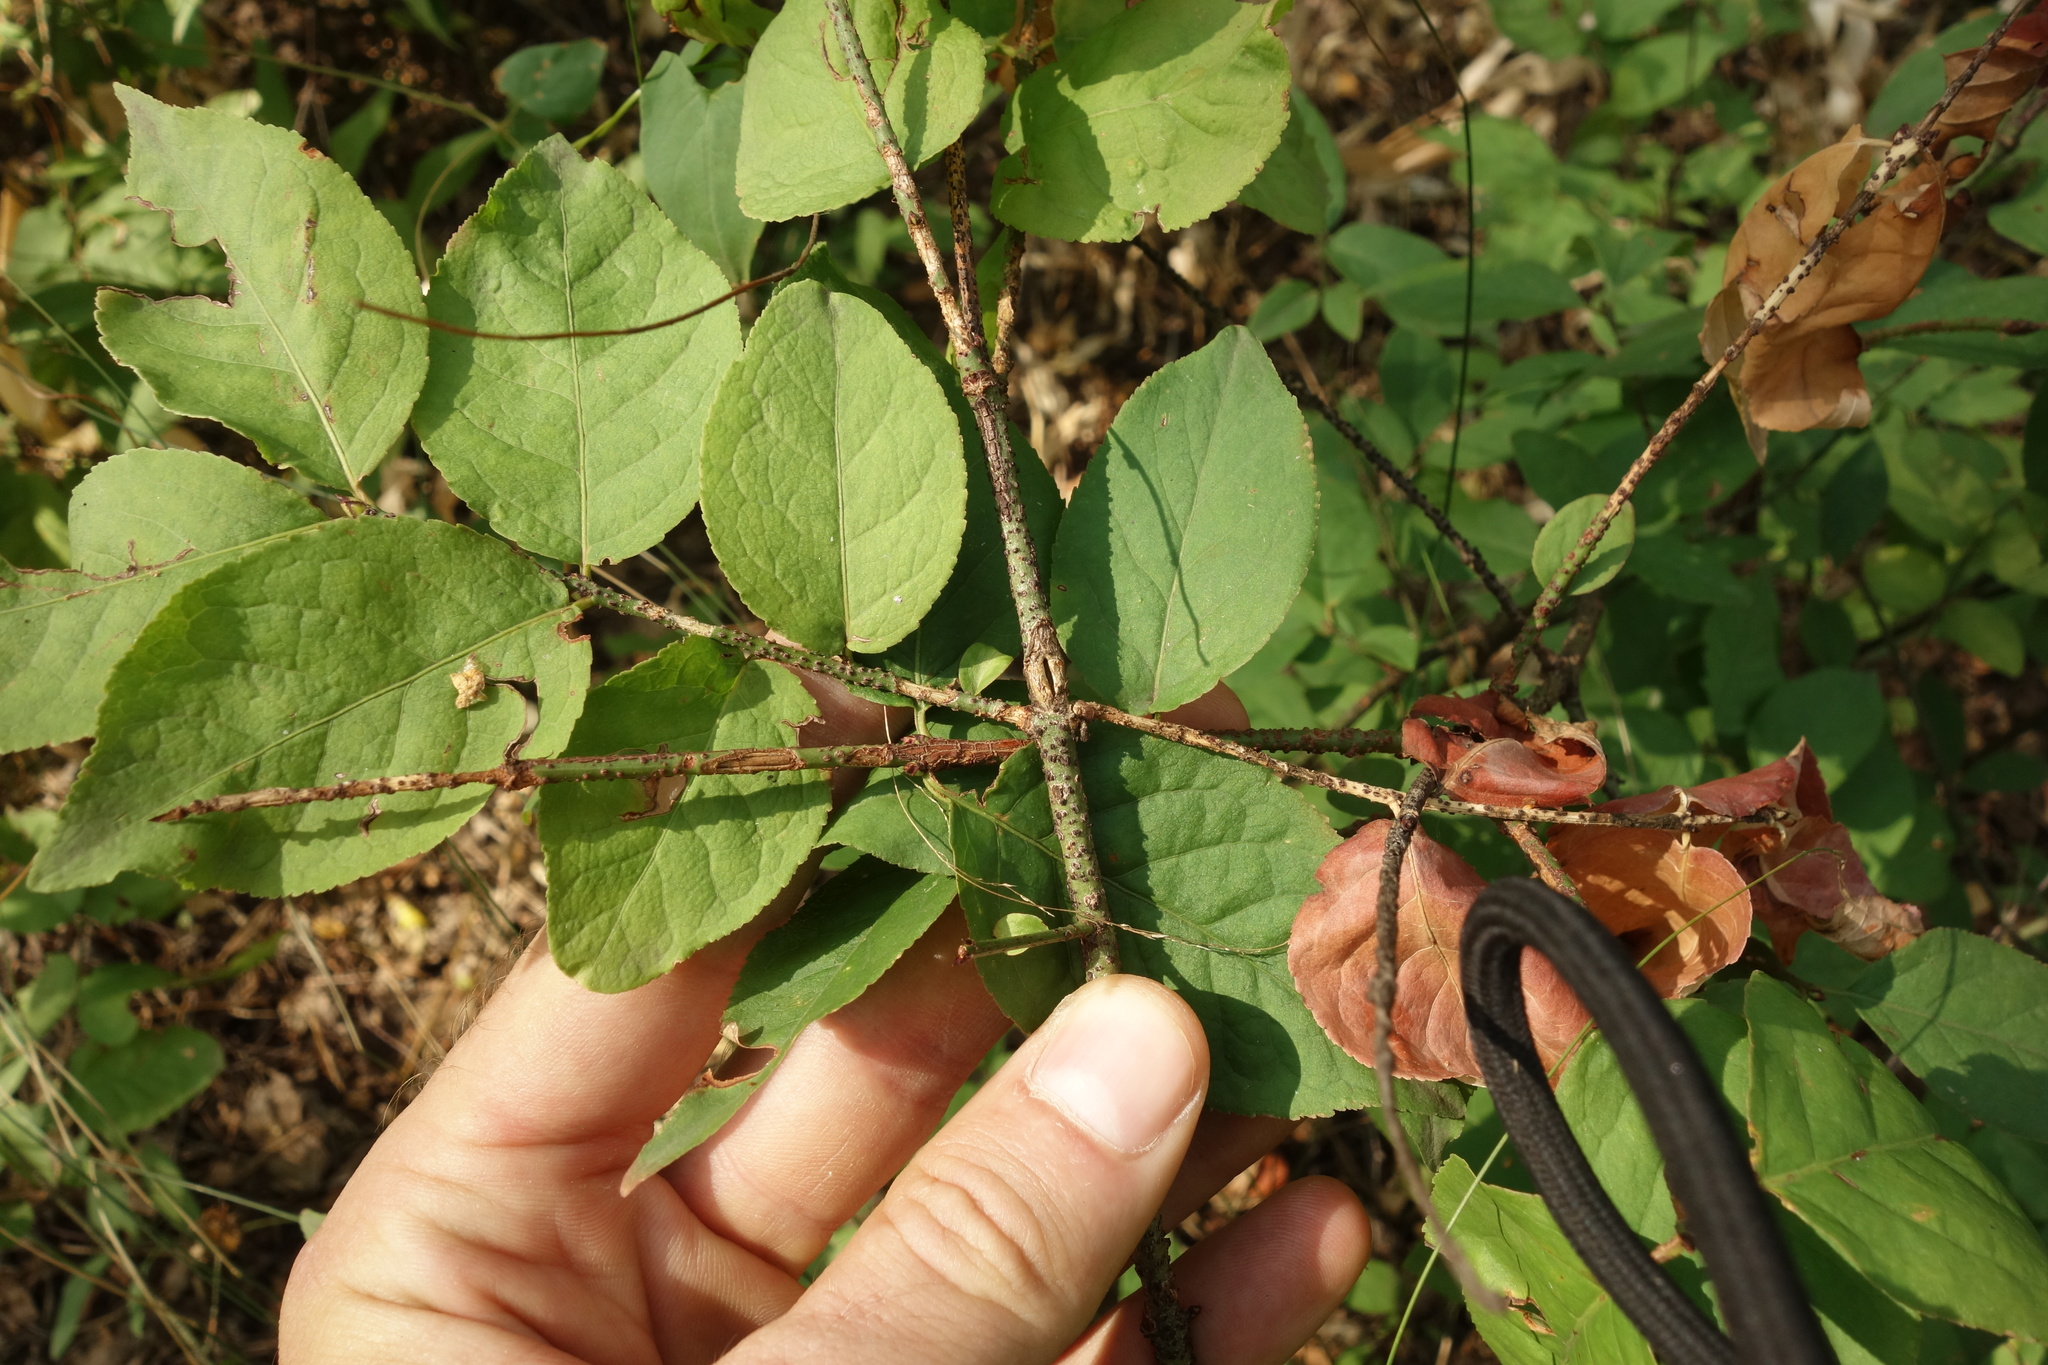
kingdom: Plantae
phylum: Tracheophyta
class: Magnoliopsida
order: Celastrales
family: Celastraceae
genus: Euonymus
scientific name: Euonymus verrucosus
